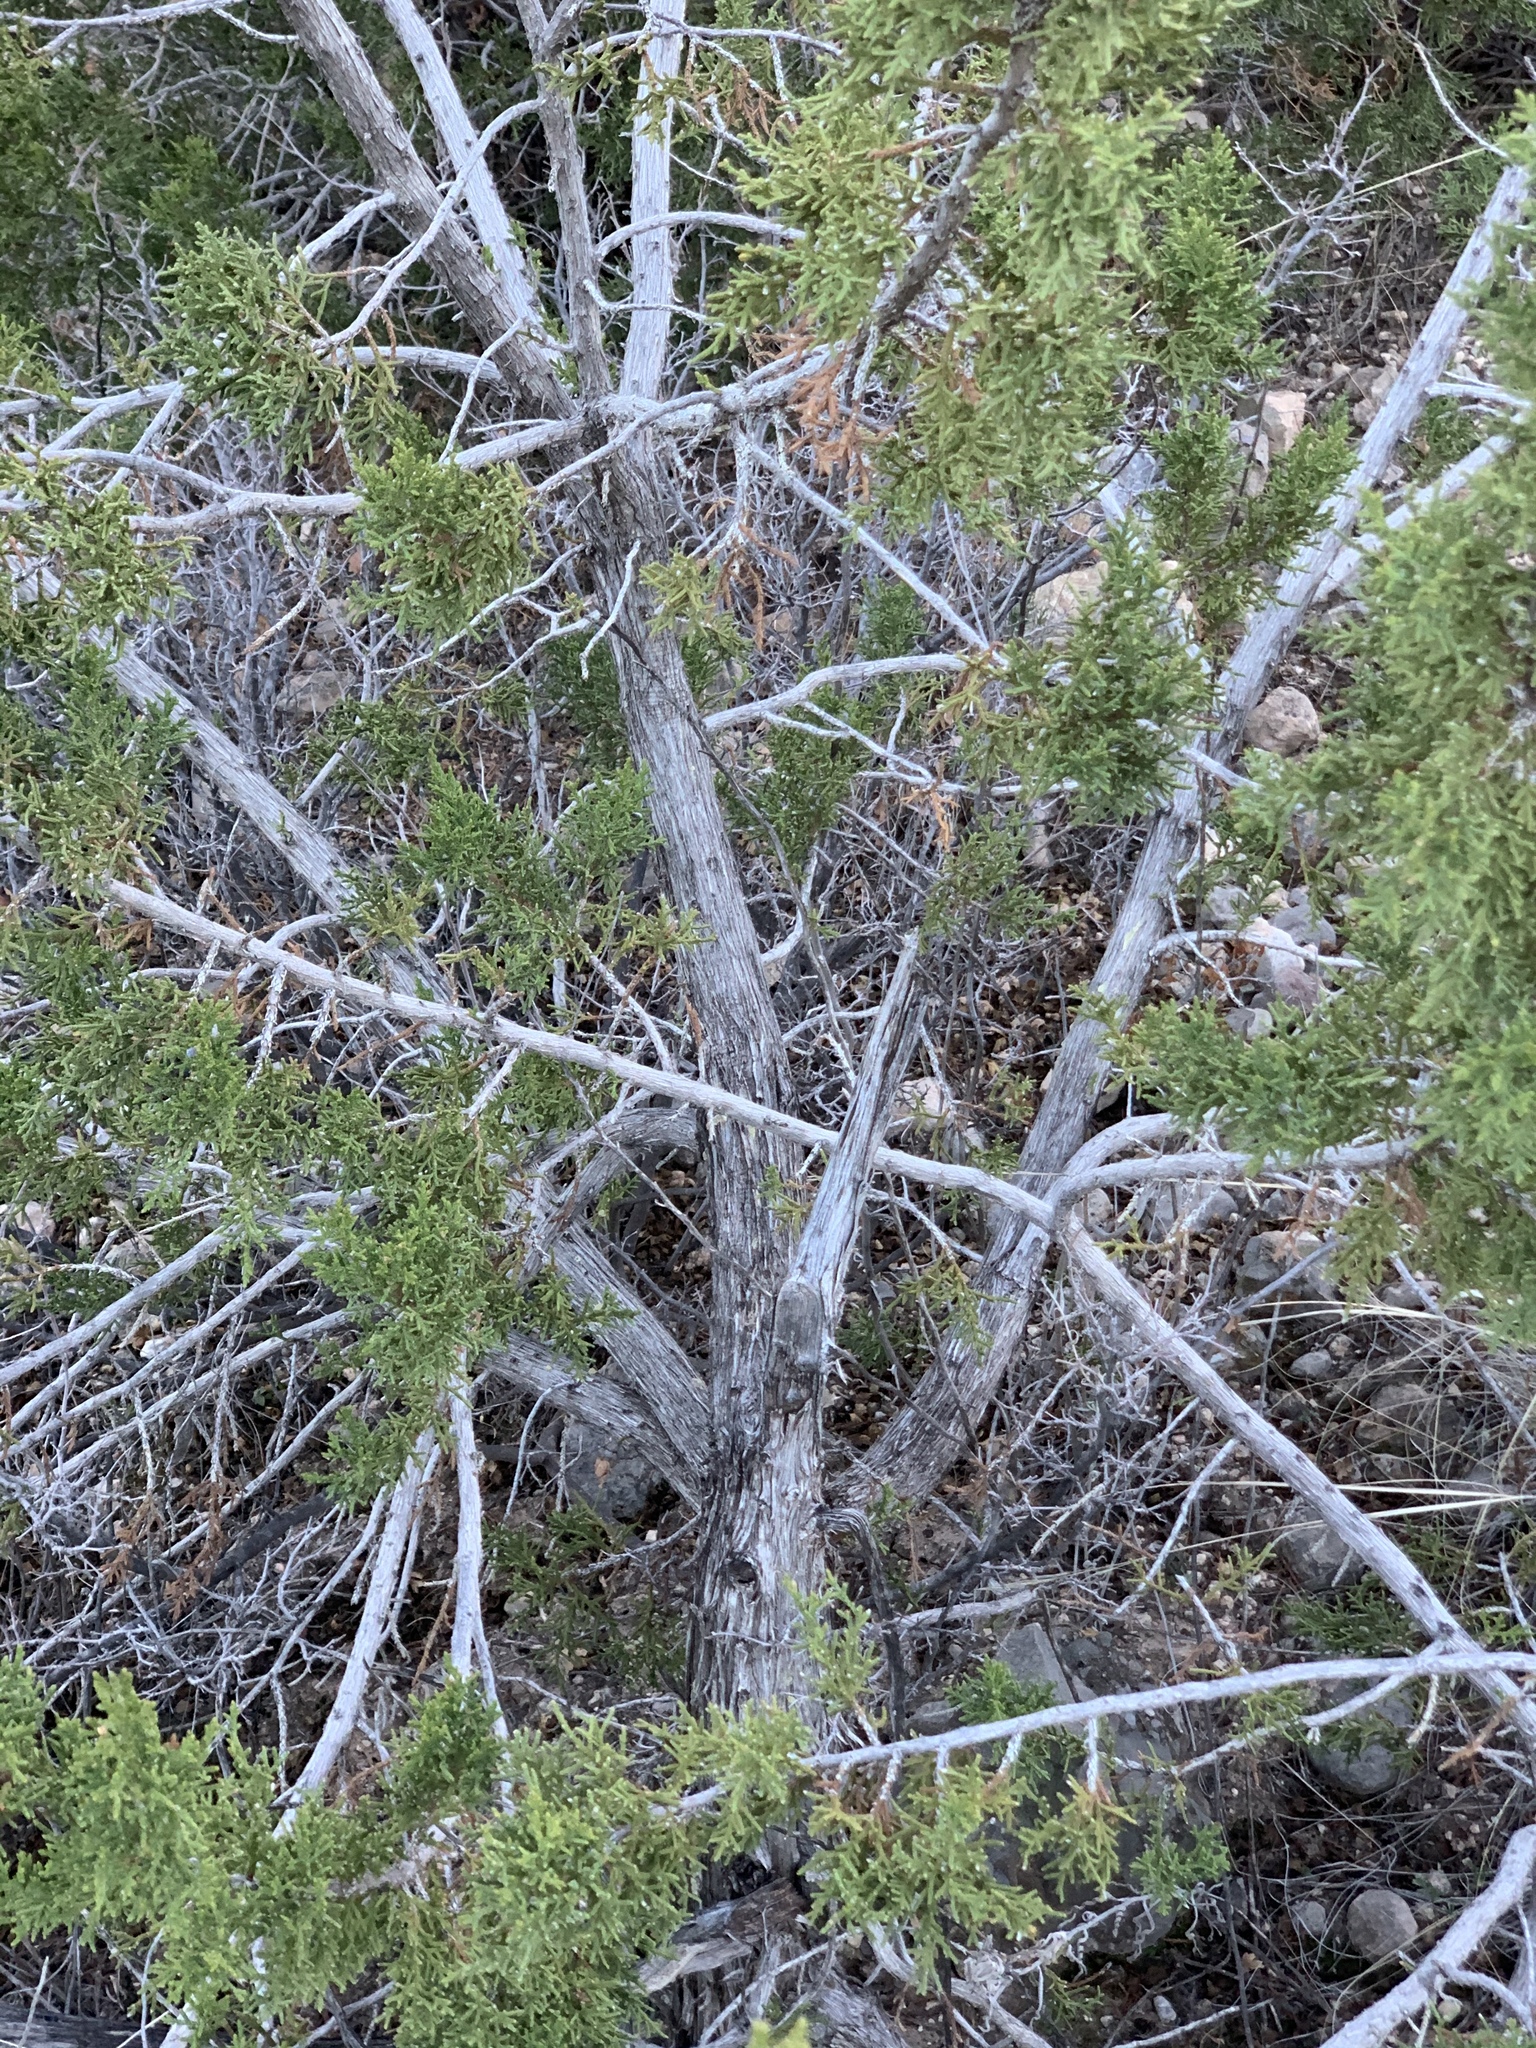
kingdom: Plantae
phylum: Tracheophyta
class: Pinopsida
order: Pinales
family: Cupressaceae
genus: Juniperus
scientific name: Juniperus monosperma
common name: One-seed juniper
